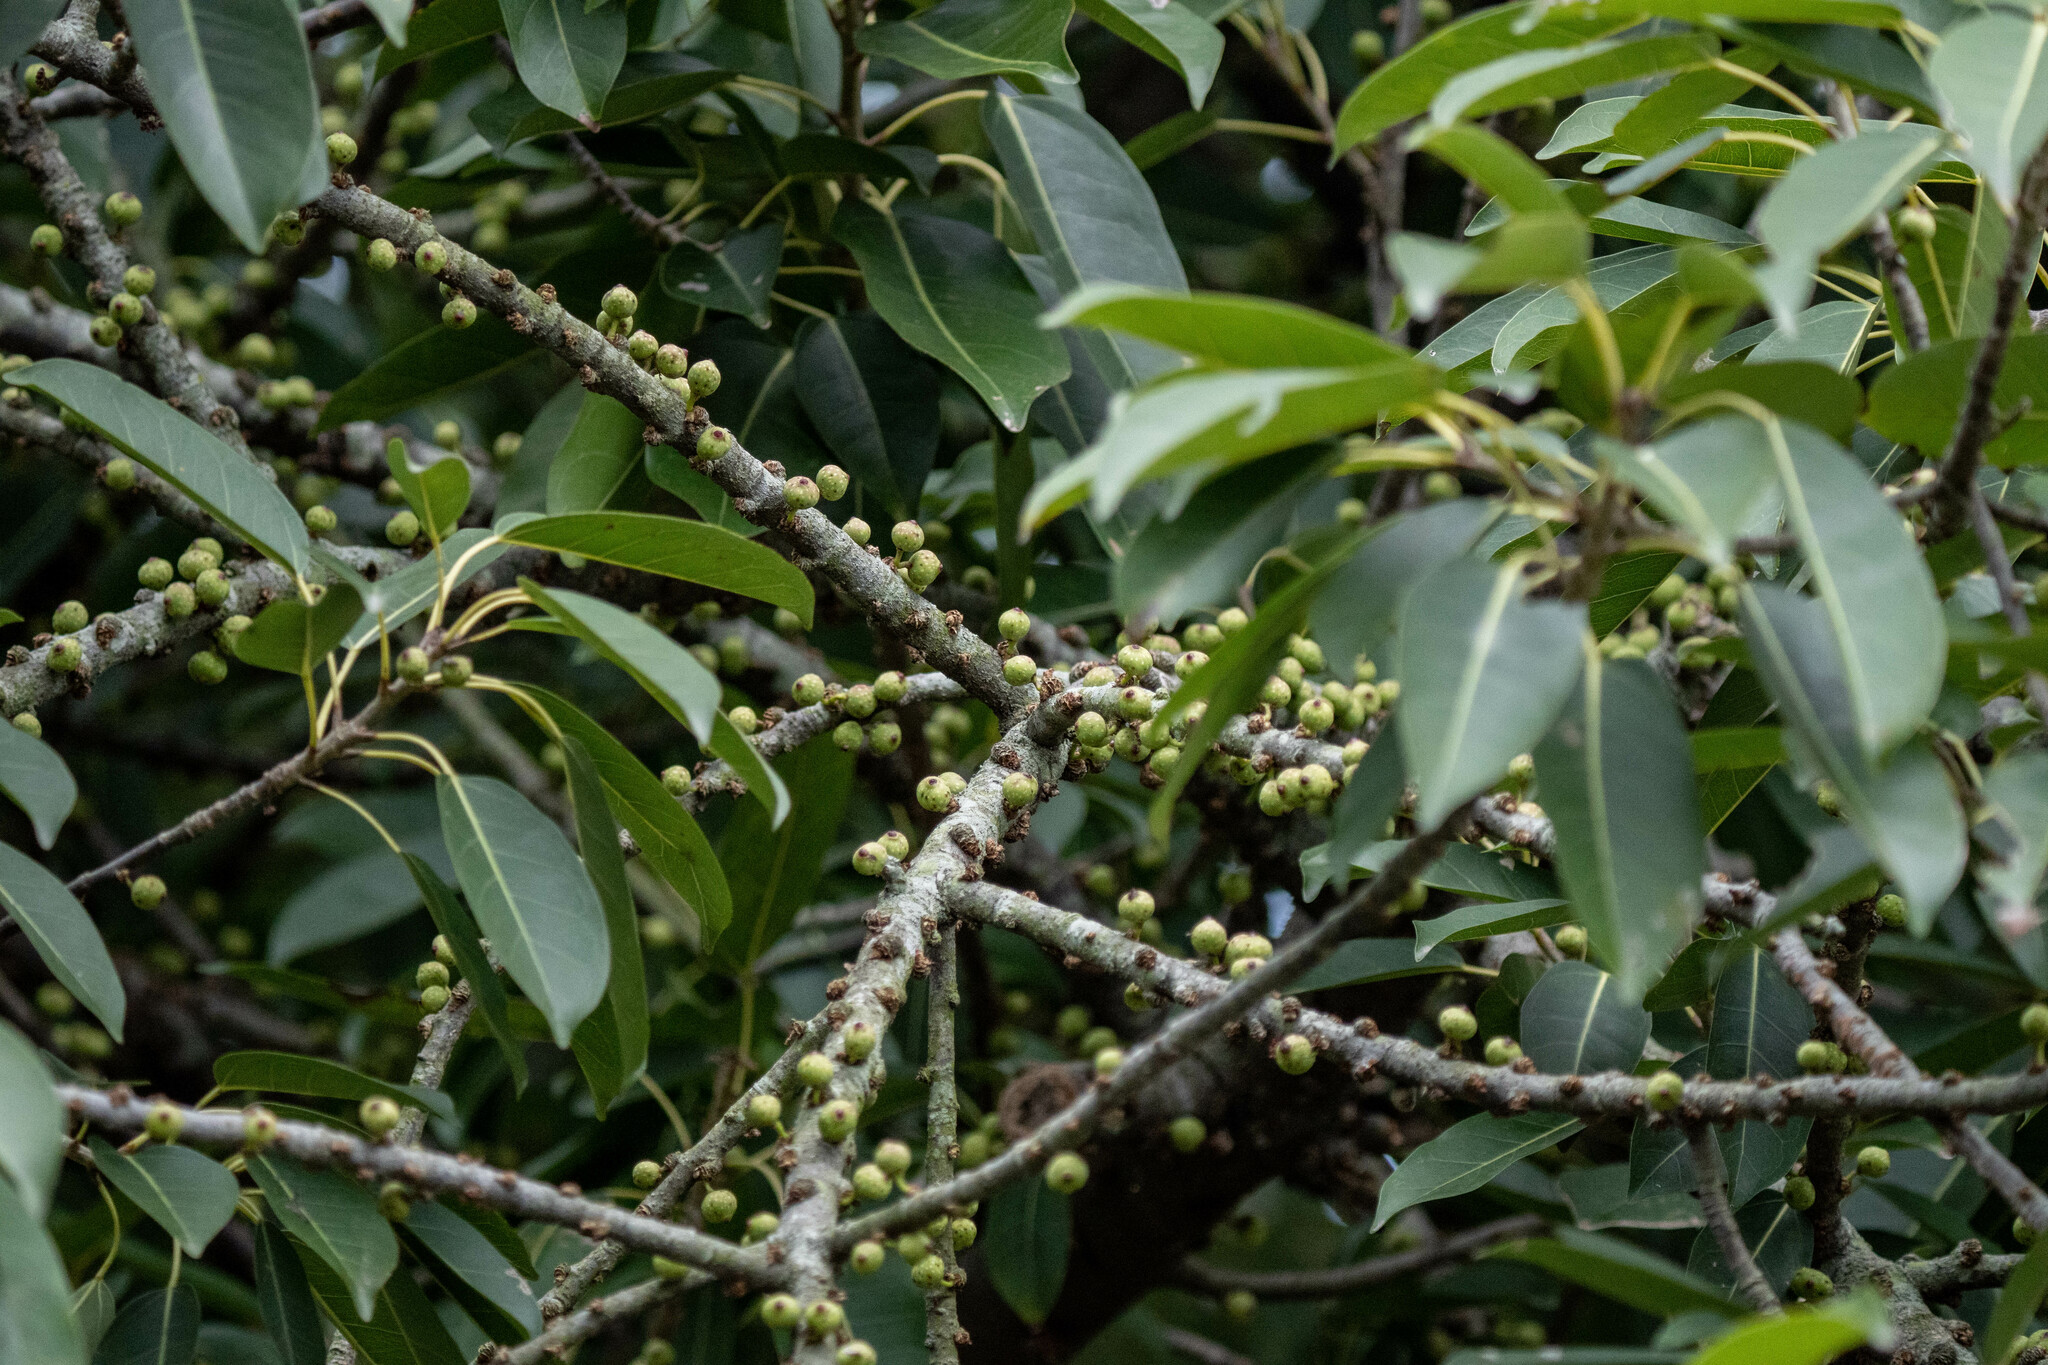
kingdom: Plantae
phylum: Tracheophyta
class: Magnoliopsida
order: Rosales
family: Moraceae
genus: Ficus
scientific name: Ficus subpisocarpa
